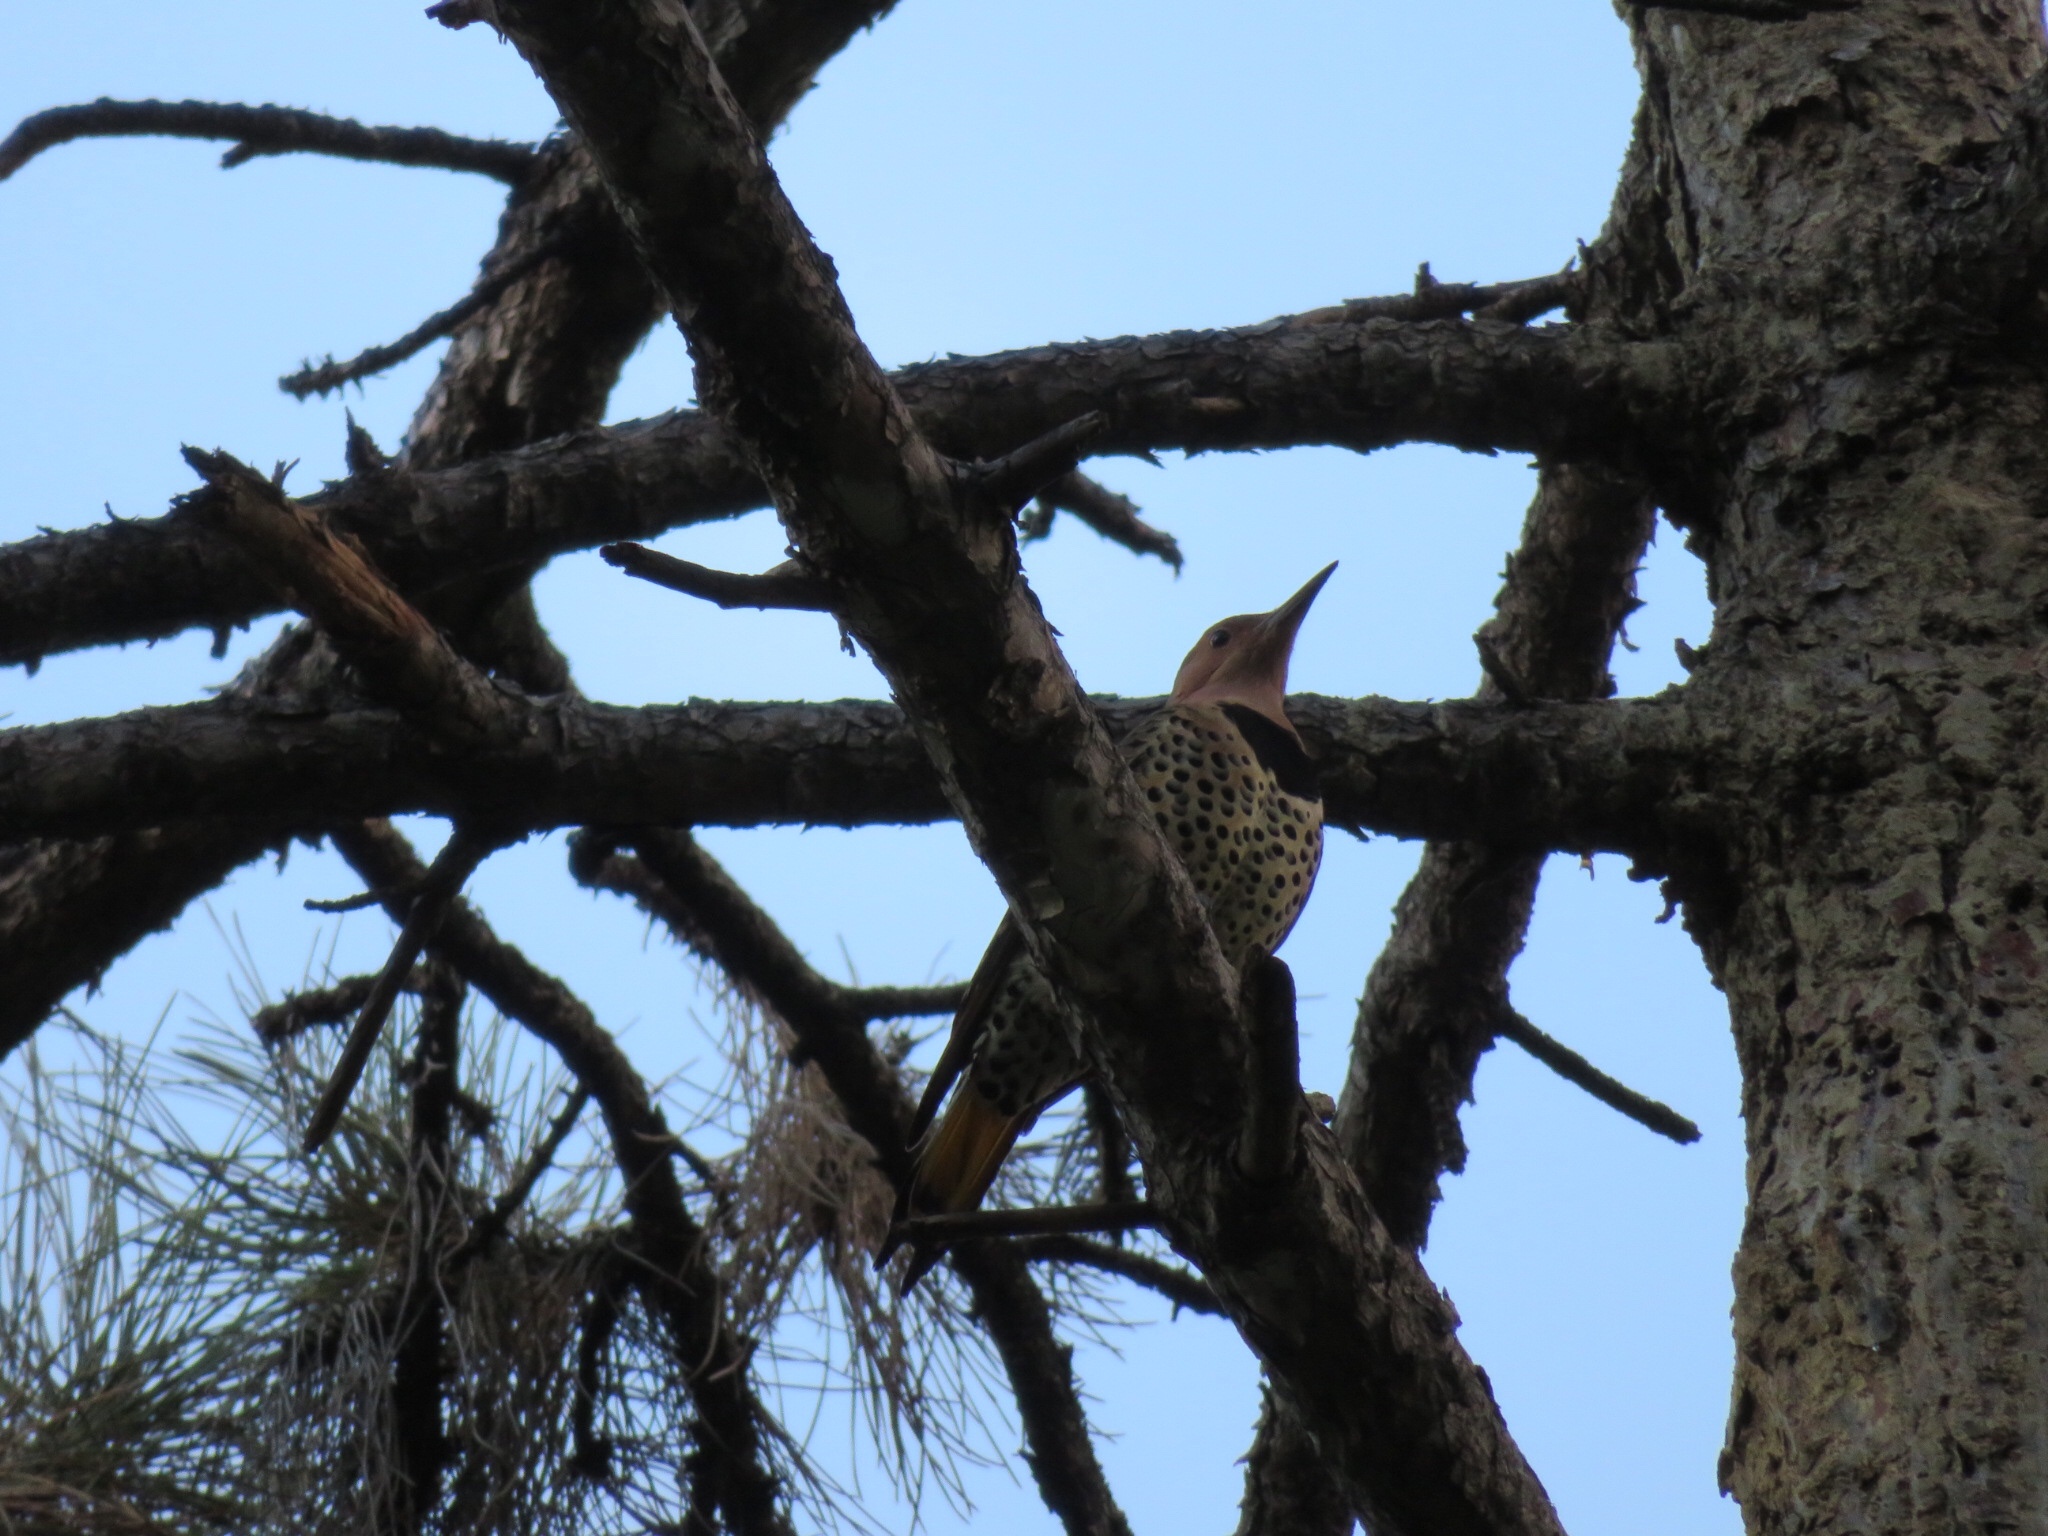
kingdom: Animalia
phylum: Chordata
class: Aves
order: Piciformes
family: Picidae
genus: Colaptes
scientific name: Colaptes auratus
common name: Northern flicker
